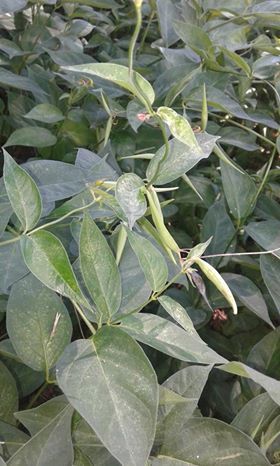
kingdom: Plantae
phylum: Tracheophyta
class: Magnoliopsida
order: Gentianales
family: Apocynaceae
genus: Vincetoxicum
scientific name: Vincetoxicum rossicum
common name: Dog-strangling vine
